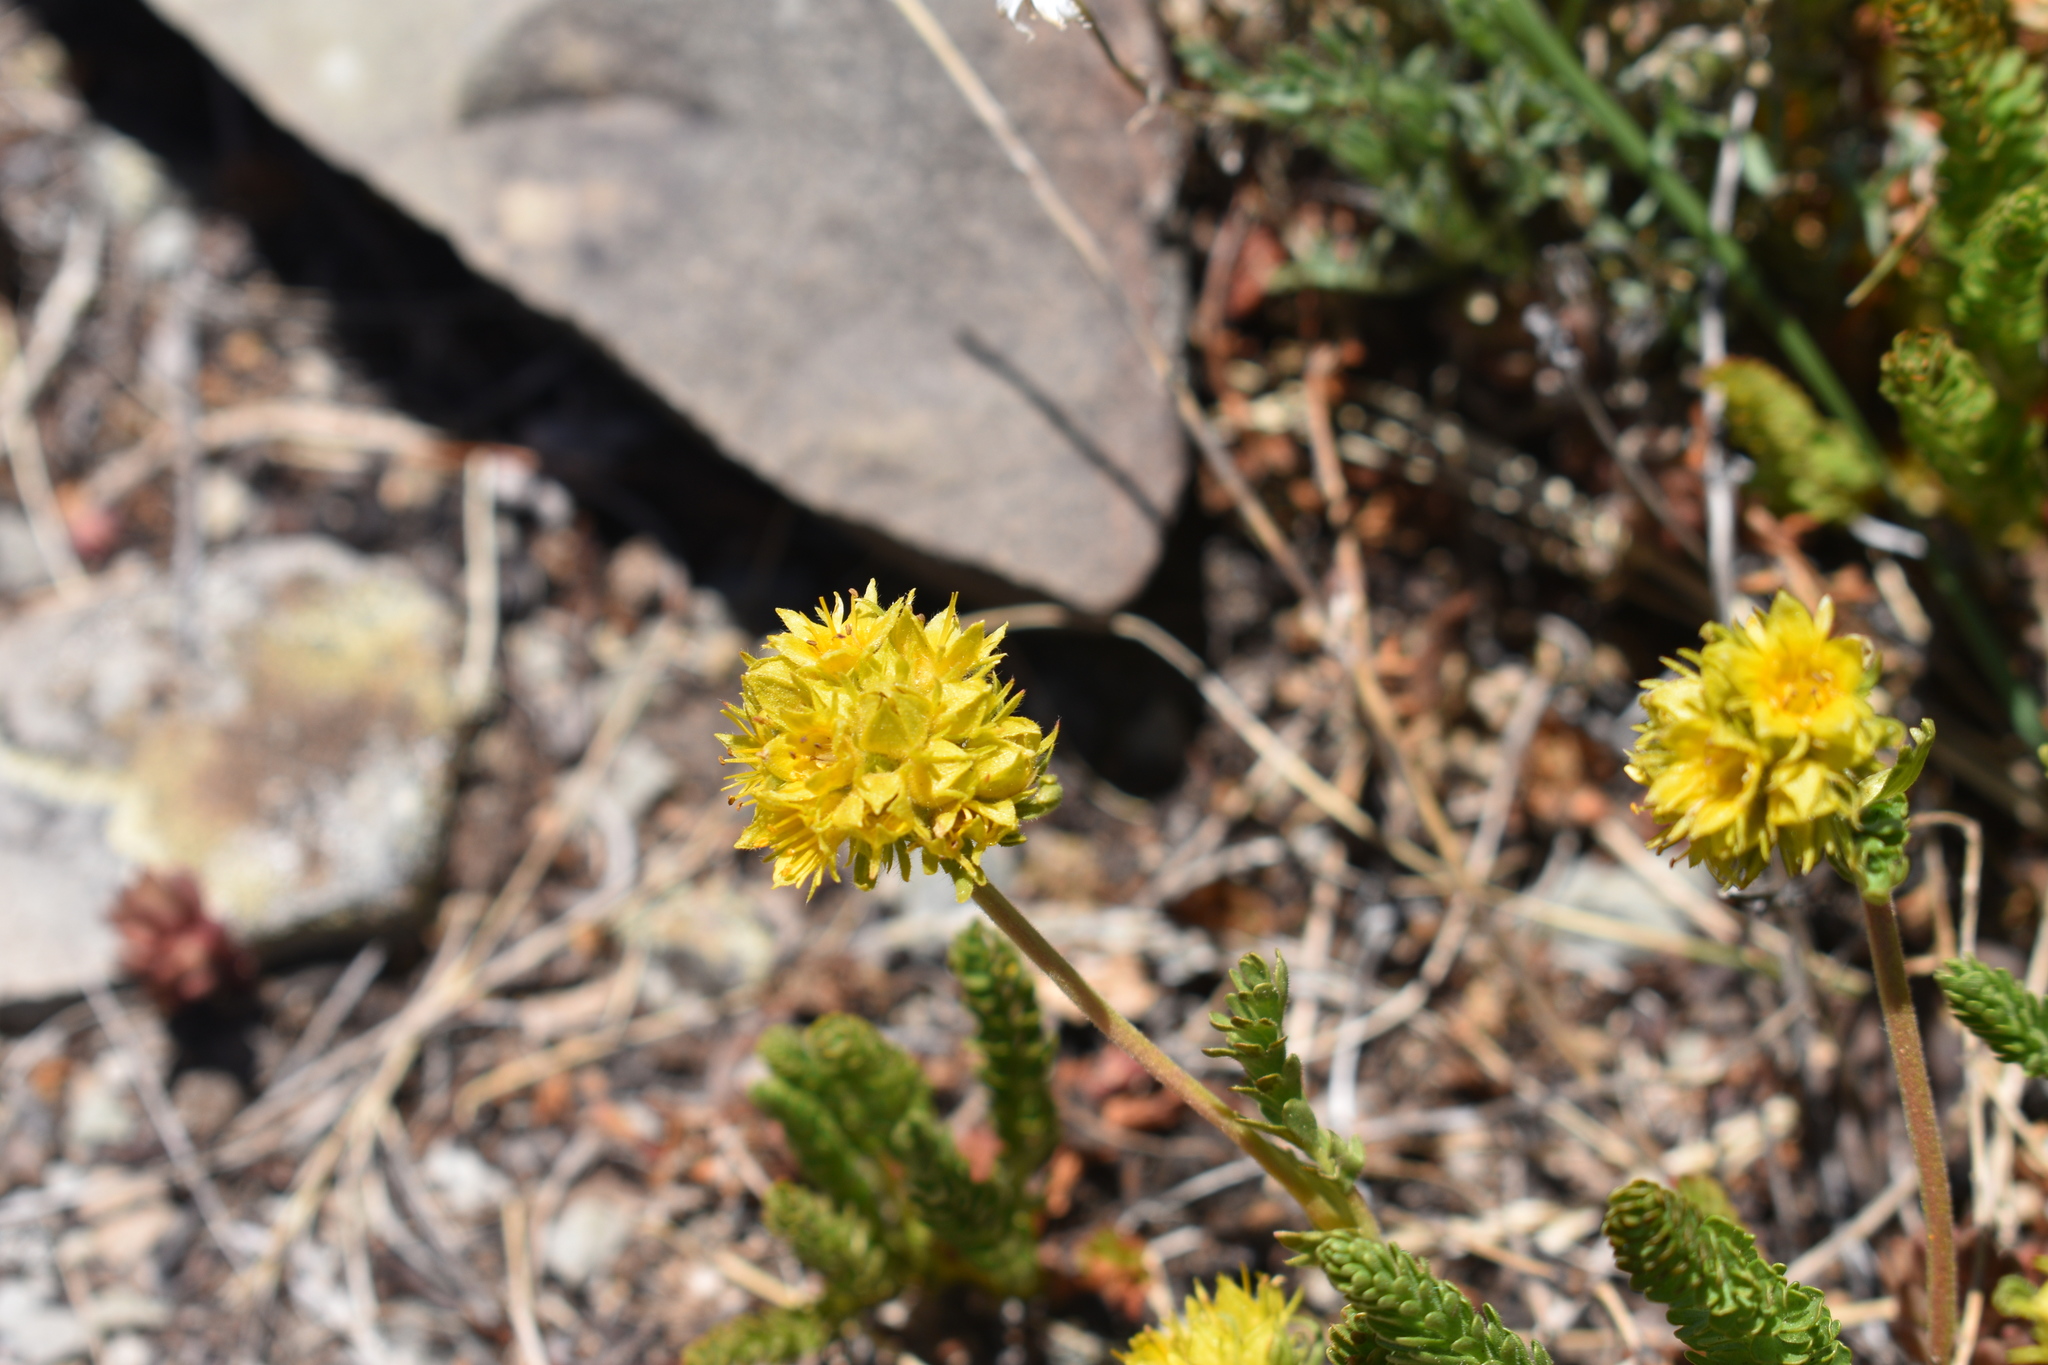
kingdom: Plantae
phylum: Tracheophyta
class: Magnoliopsida
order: Rosales
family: Rosaceae
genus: Potentilla
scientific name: Potentilla gordonii
